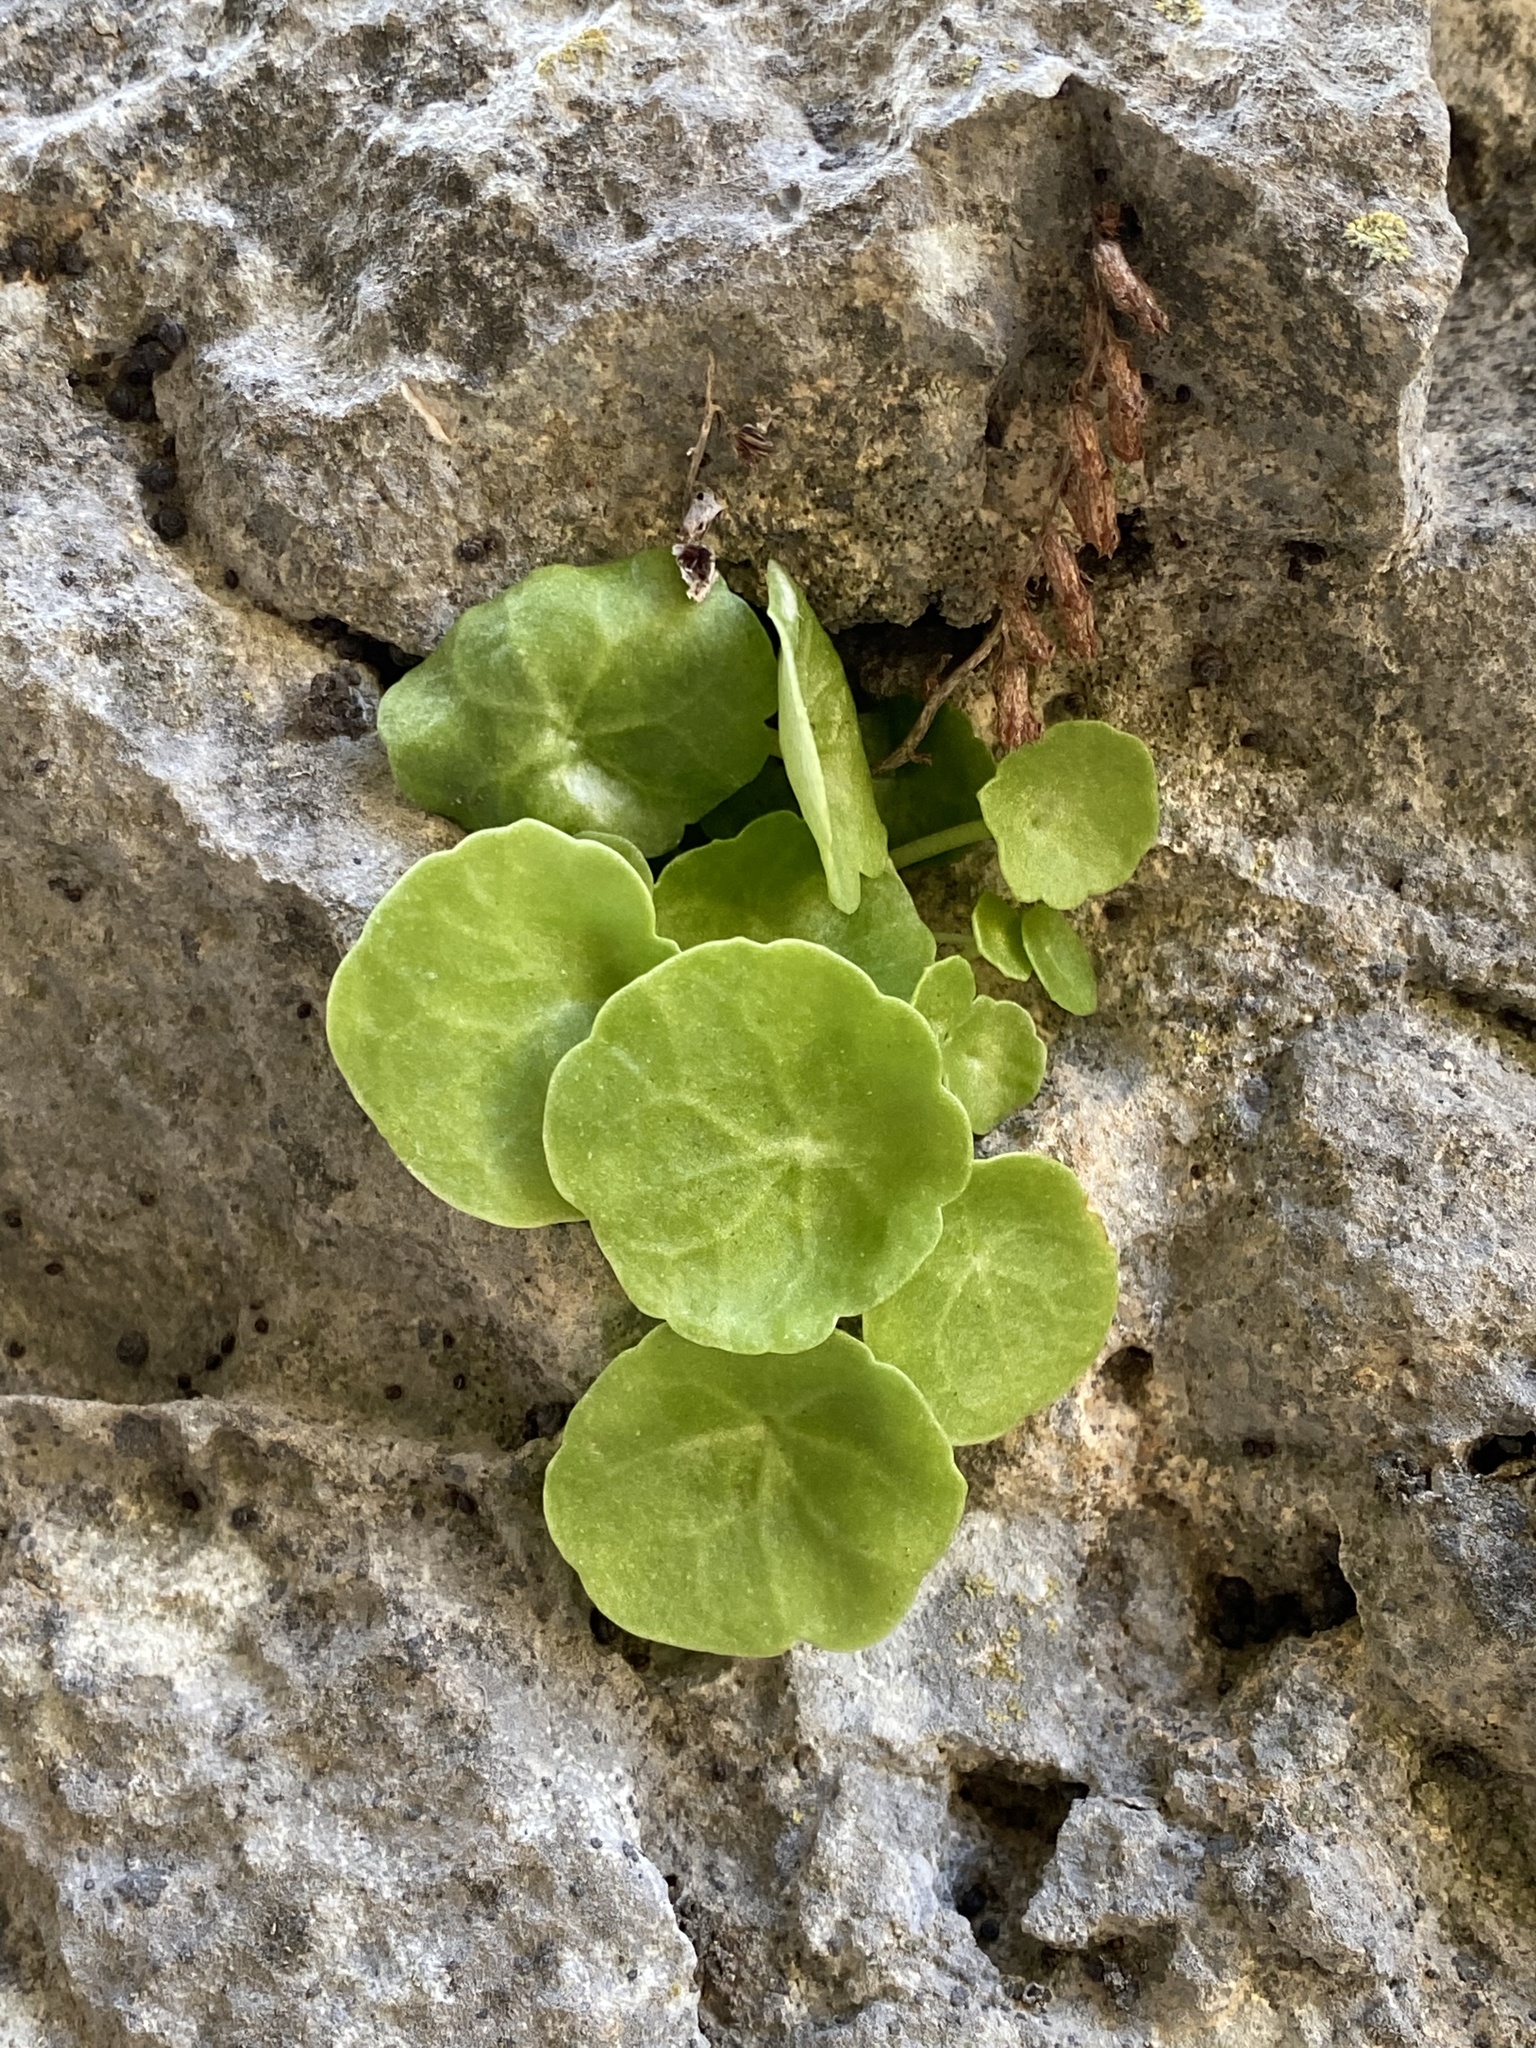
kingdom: Plantae
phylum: Tracheophyta
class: Magnoliopsida
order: Saxifragales
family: Crassulaceae
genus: Umbilicus
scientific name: Umbilicus rupestris
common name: Navelwort
